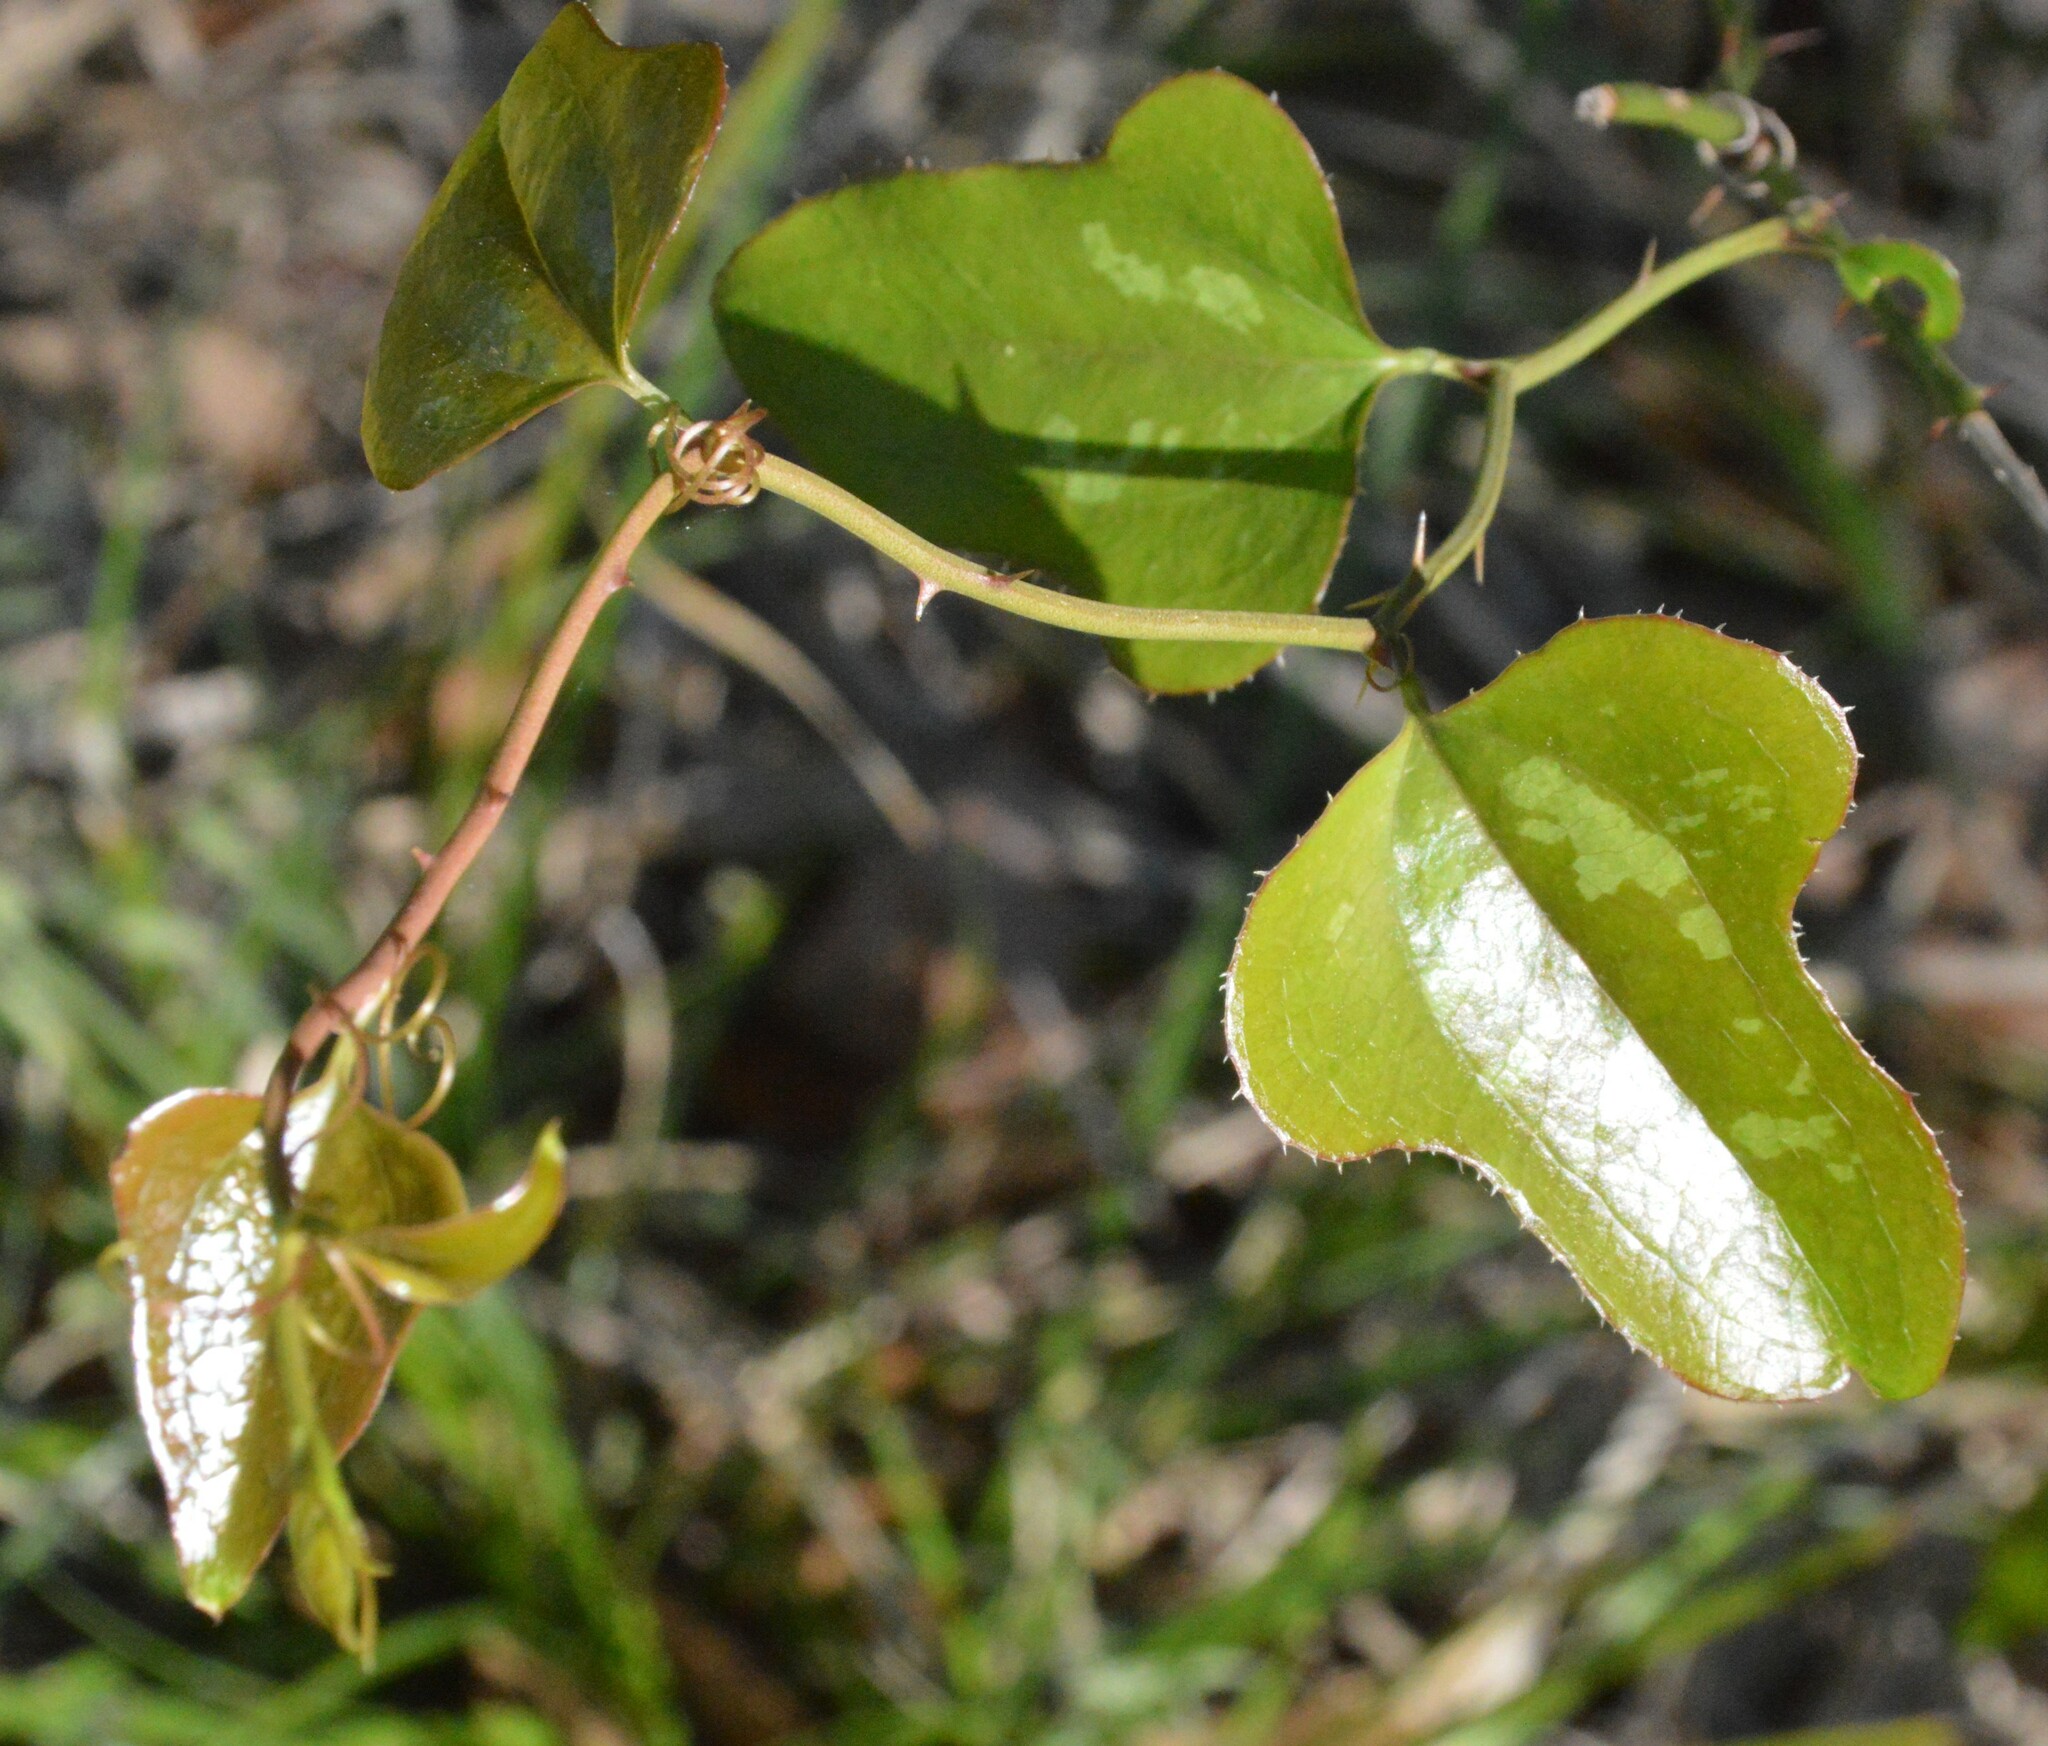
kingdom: Plantae
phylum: Tracheophyta
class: Liliopsida
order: Liliales
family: Smilacaceae
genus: Smilax
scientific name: Smilax bona-nox
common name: Catbrier
